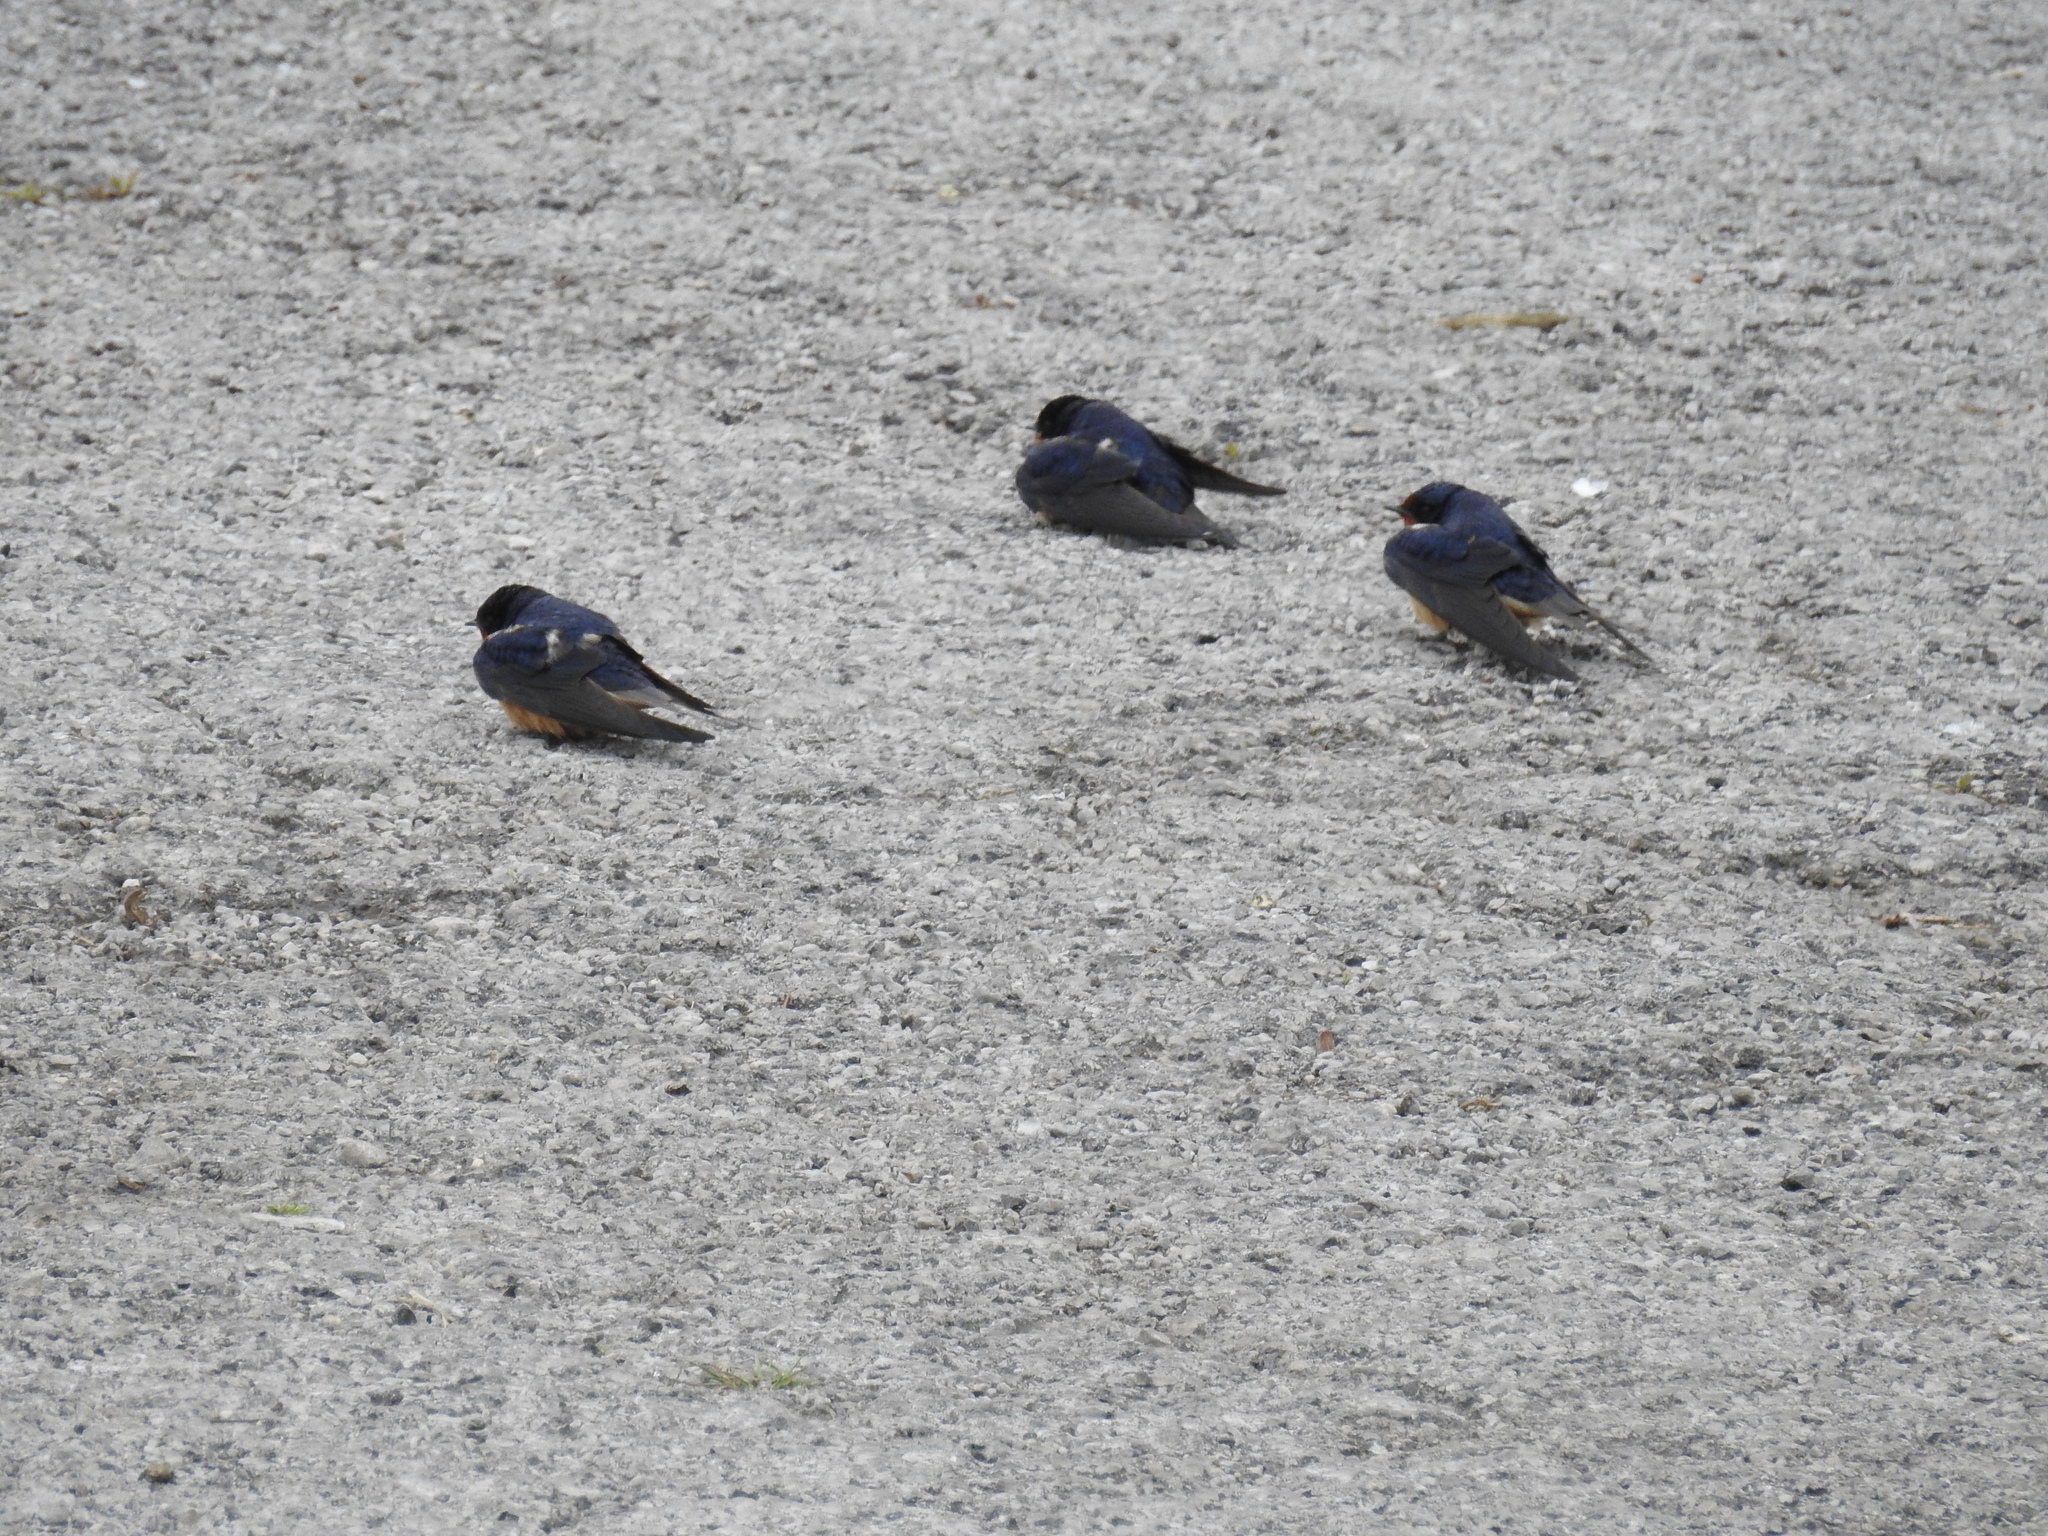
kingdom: Animalia
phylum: Chordata
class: Aves
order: Passeriformes
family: Hirundinidae
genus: Hirundo
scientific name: Hirundo rustica
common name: Barn swallow
